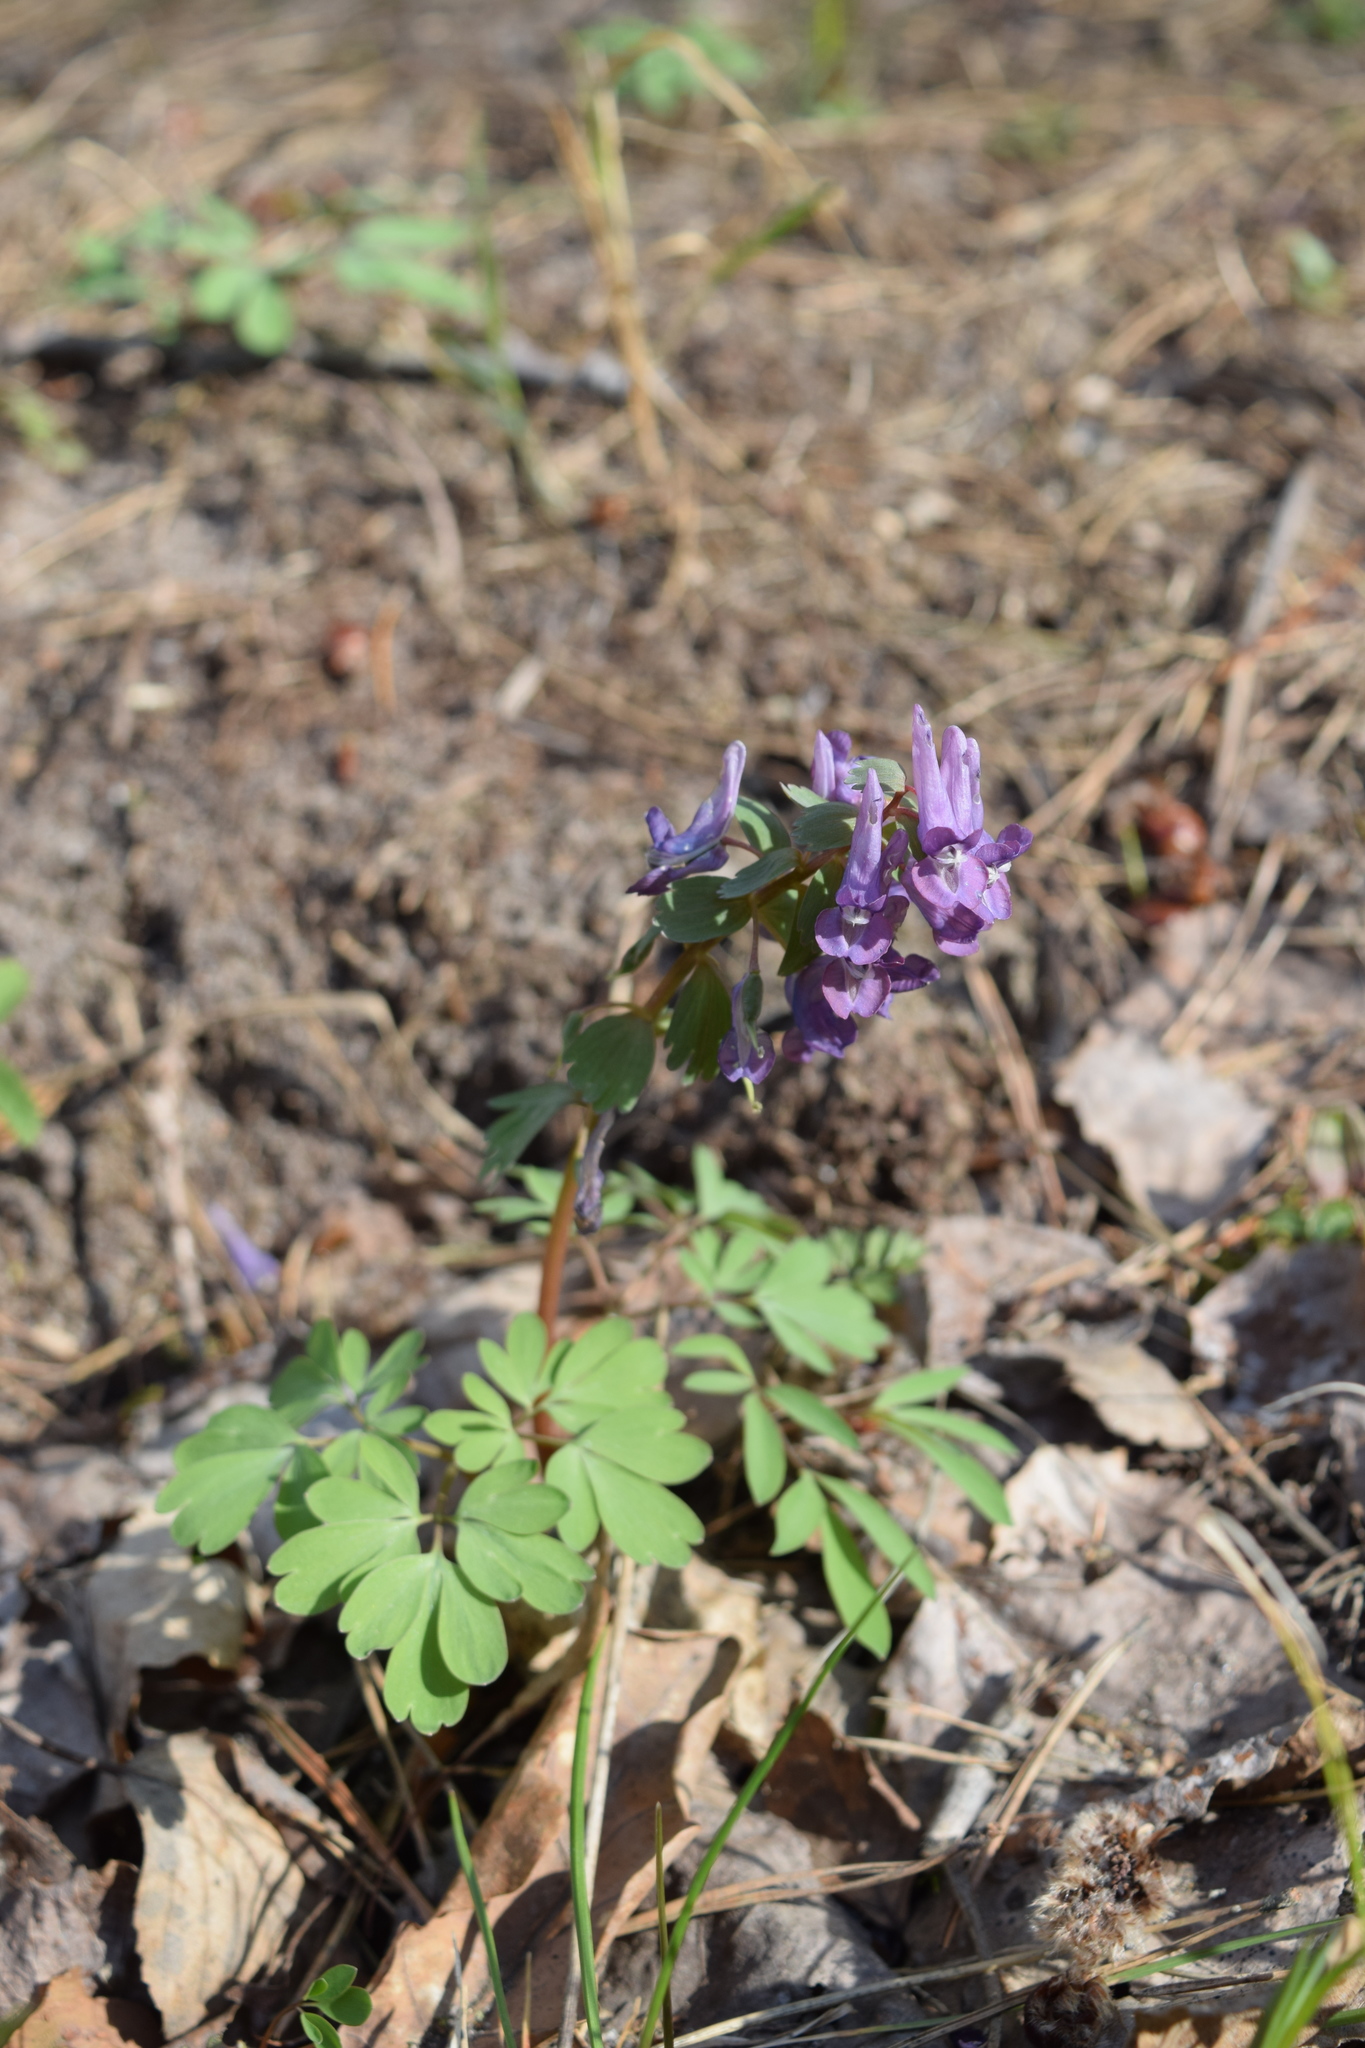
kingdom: Plantae
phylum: Tracheophyta
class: Magnoliopsida
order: Ranunculales
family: Papaveraceae
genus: Corydalis
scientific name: Corydalis solida
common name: Bird-in-a-bush
